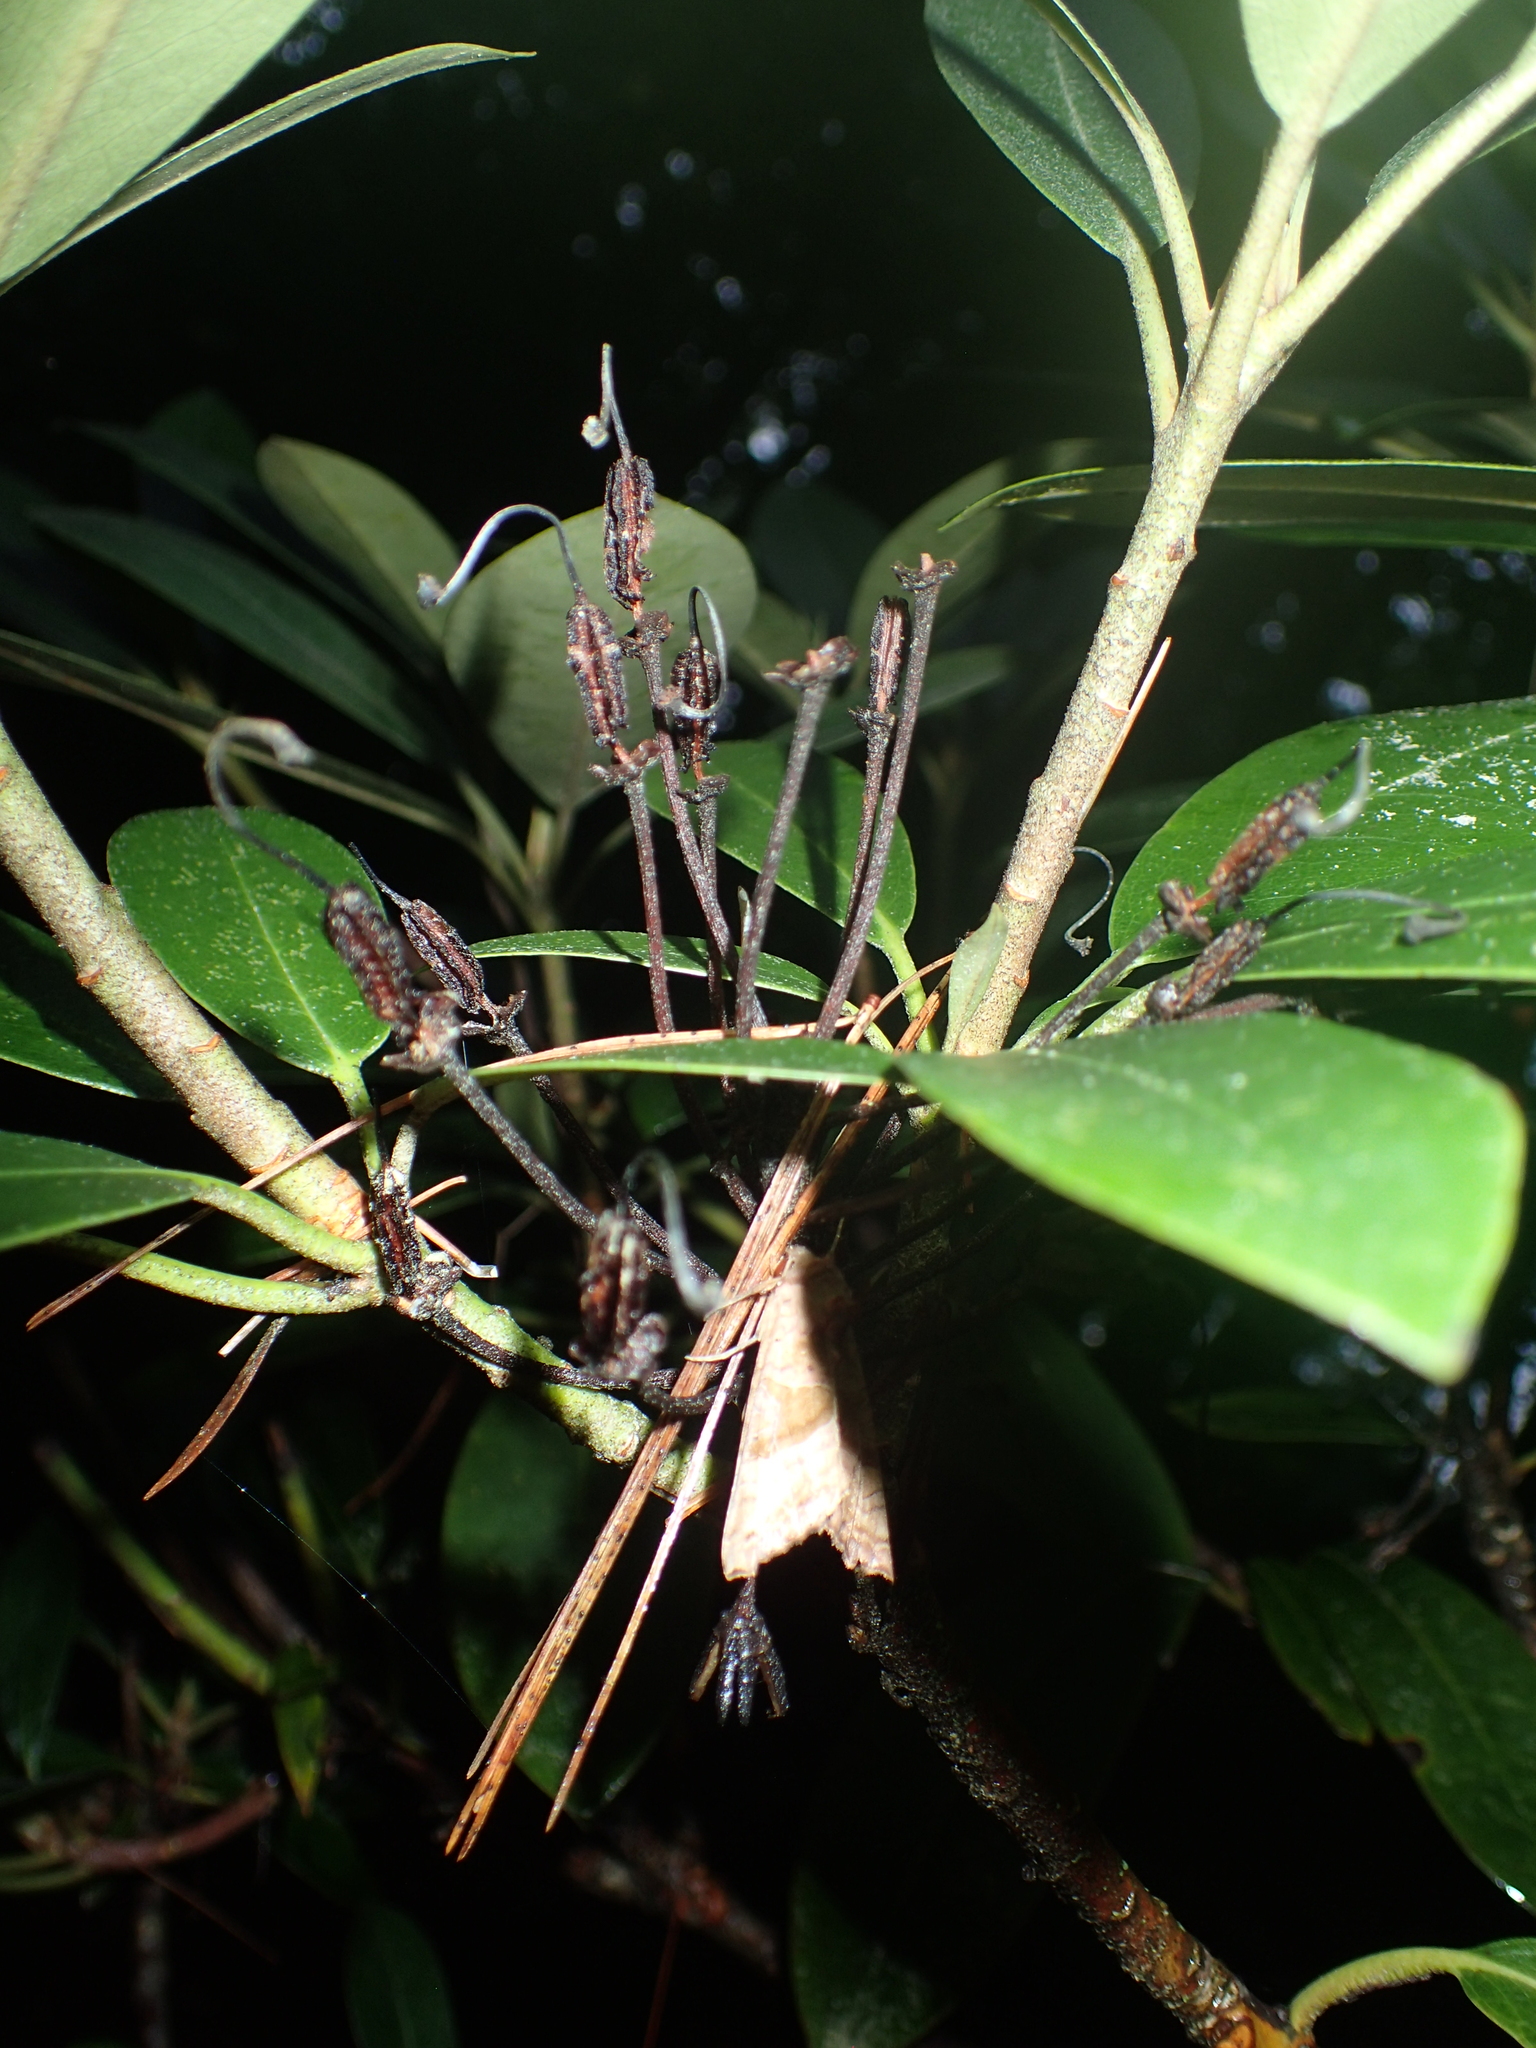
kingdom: Plantae
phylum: Tracheophyta
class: Magnoliopsida
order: Ericales
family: Ericaceae
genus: Rhododendron
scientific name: Rhododendron maximum
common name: Great rhododendron
